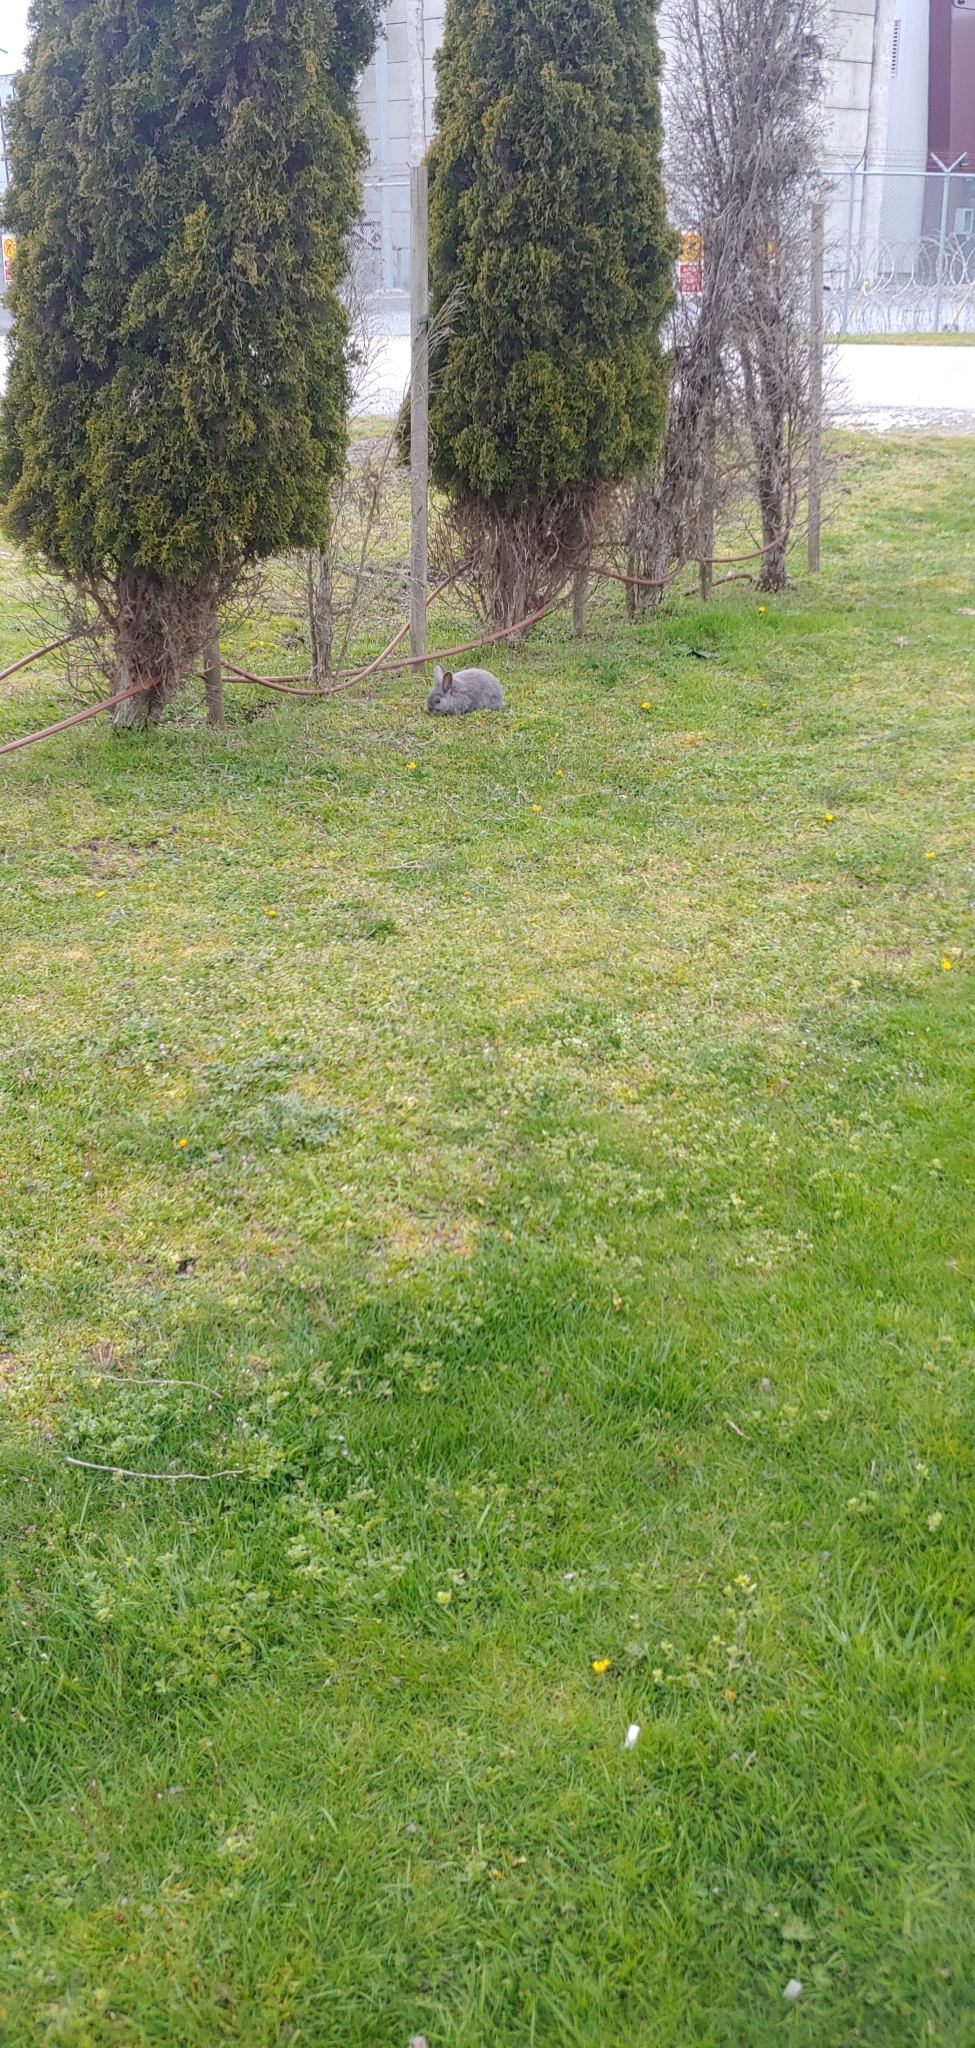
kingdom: Animalia
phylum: Chordata
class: Mammalia
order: Lagomorpha
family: Leporidae
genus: Oryctolagus
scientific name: Oryctolagus cuniculus
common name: European rabbit
